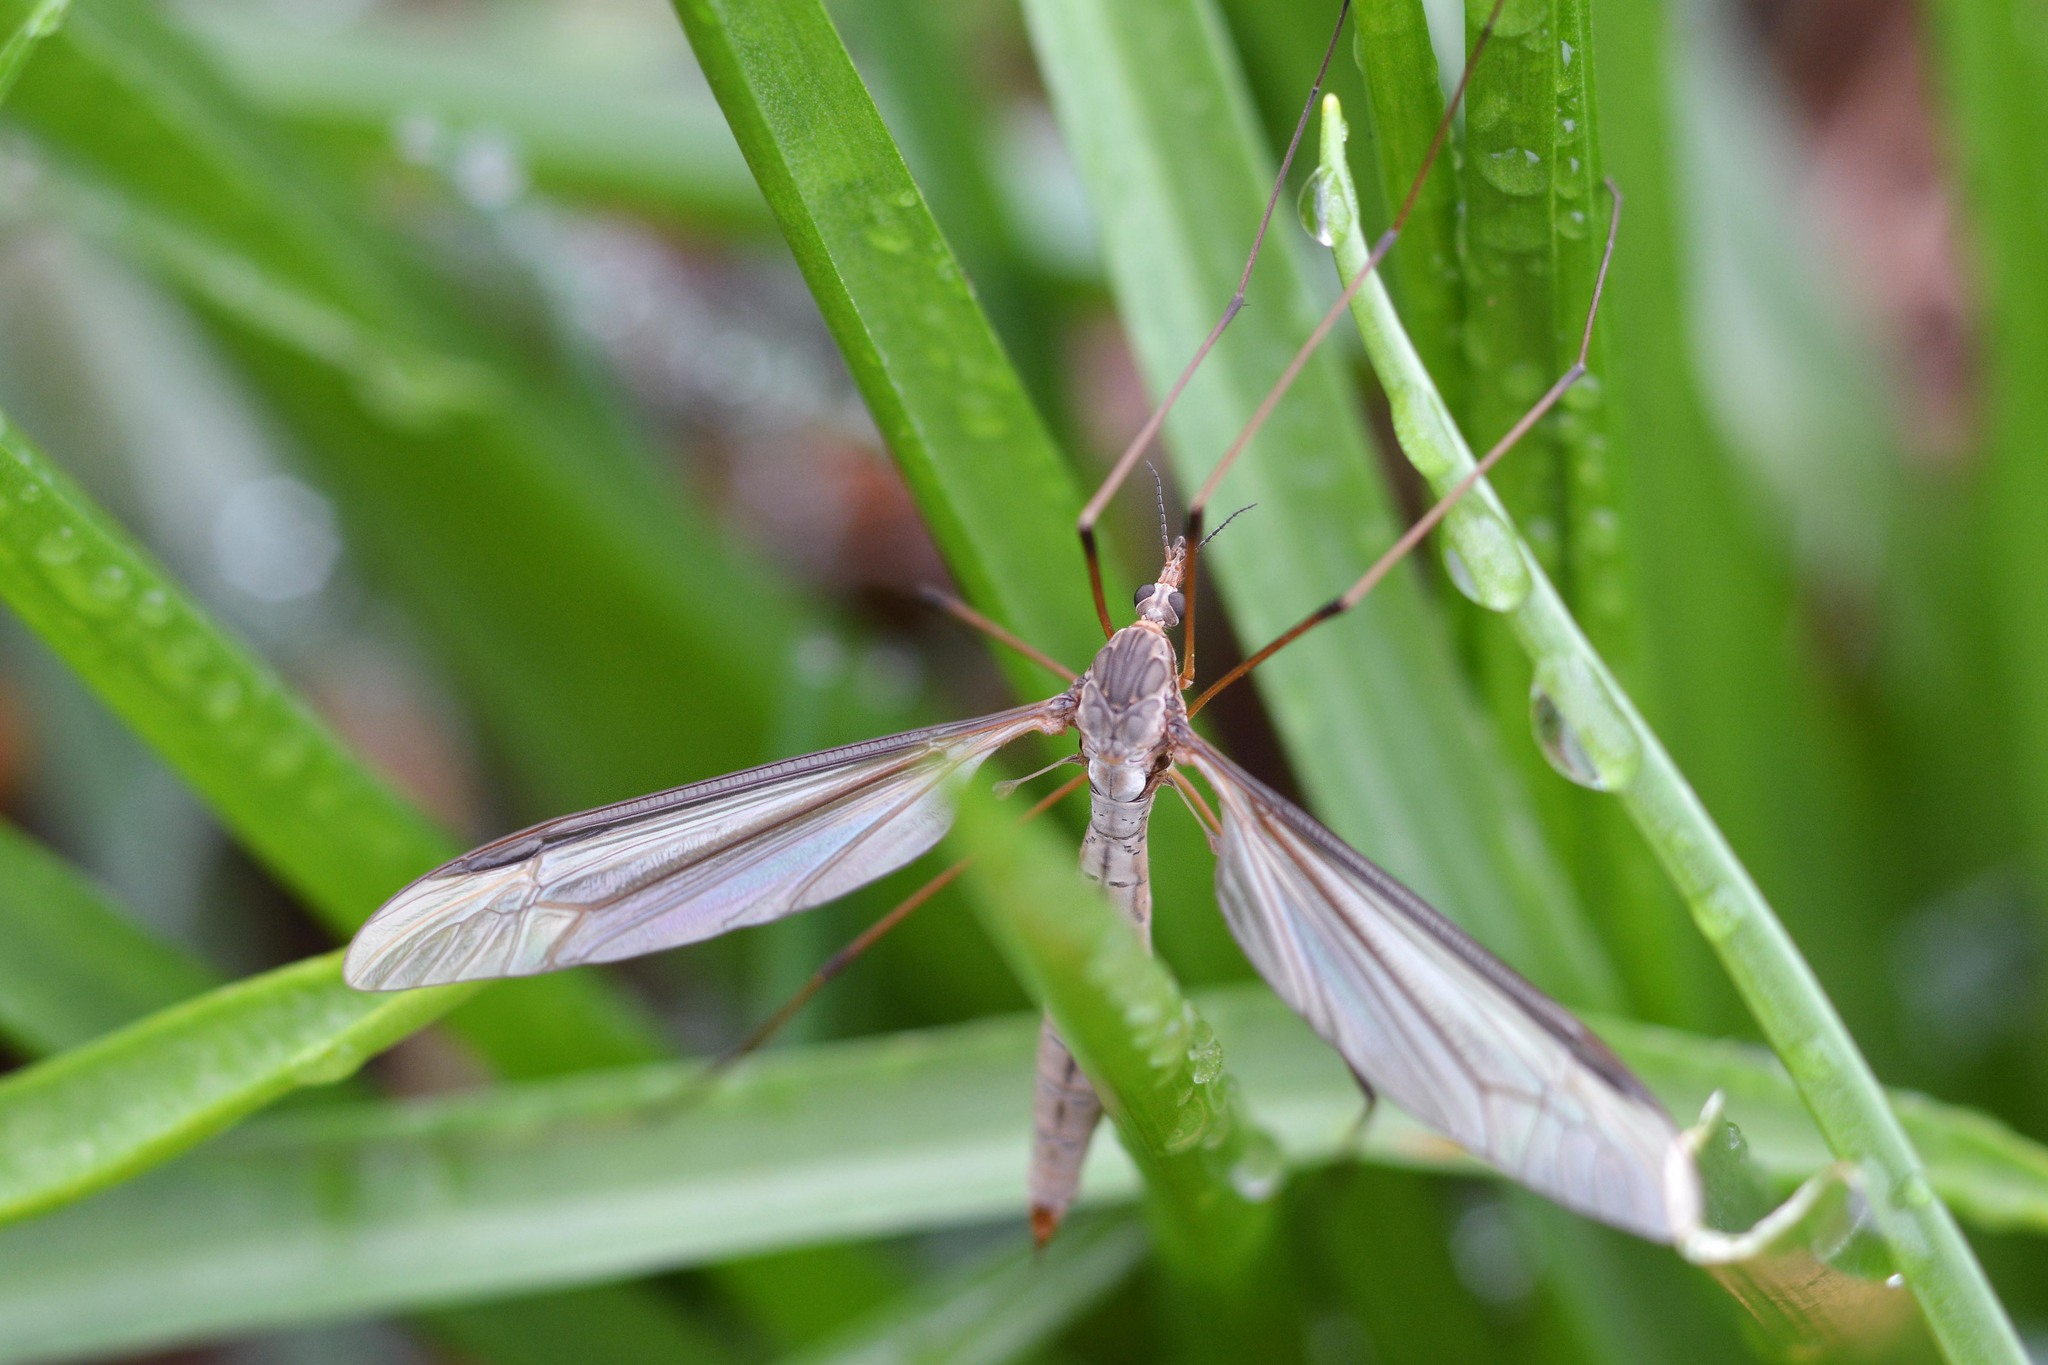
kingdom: Animalia
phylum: Arthropoda
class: Insecta
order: Diptera
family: Tipulidae
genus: Tipula
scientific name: Tipula oleracea
